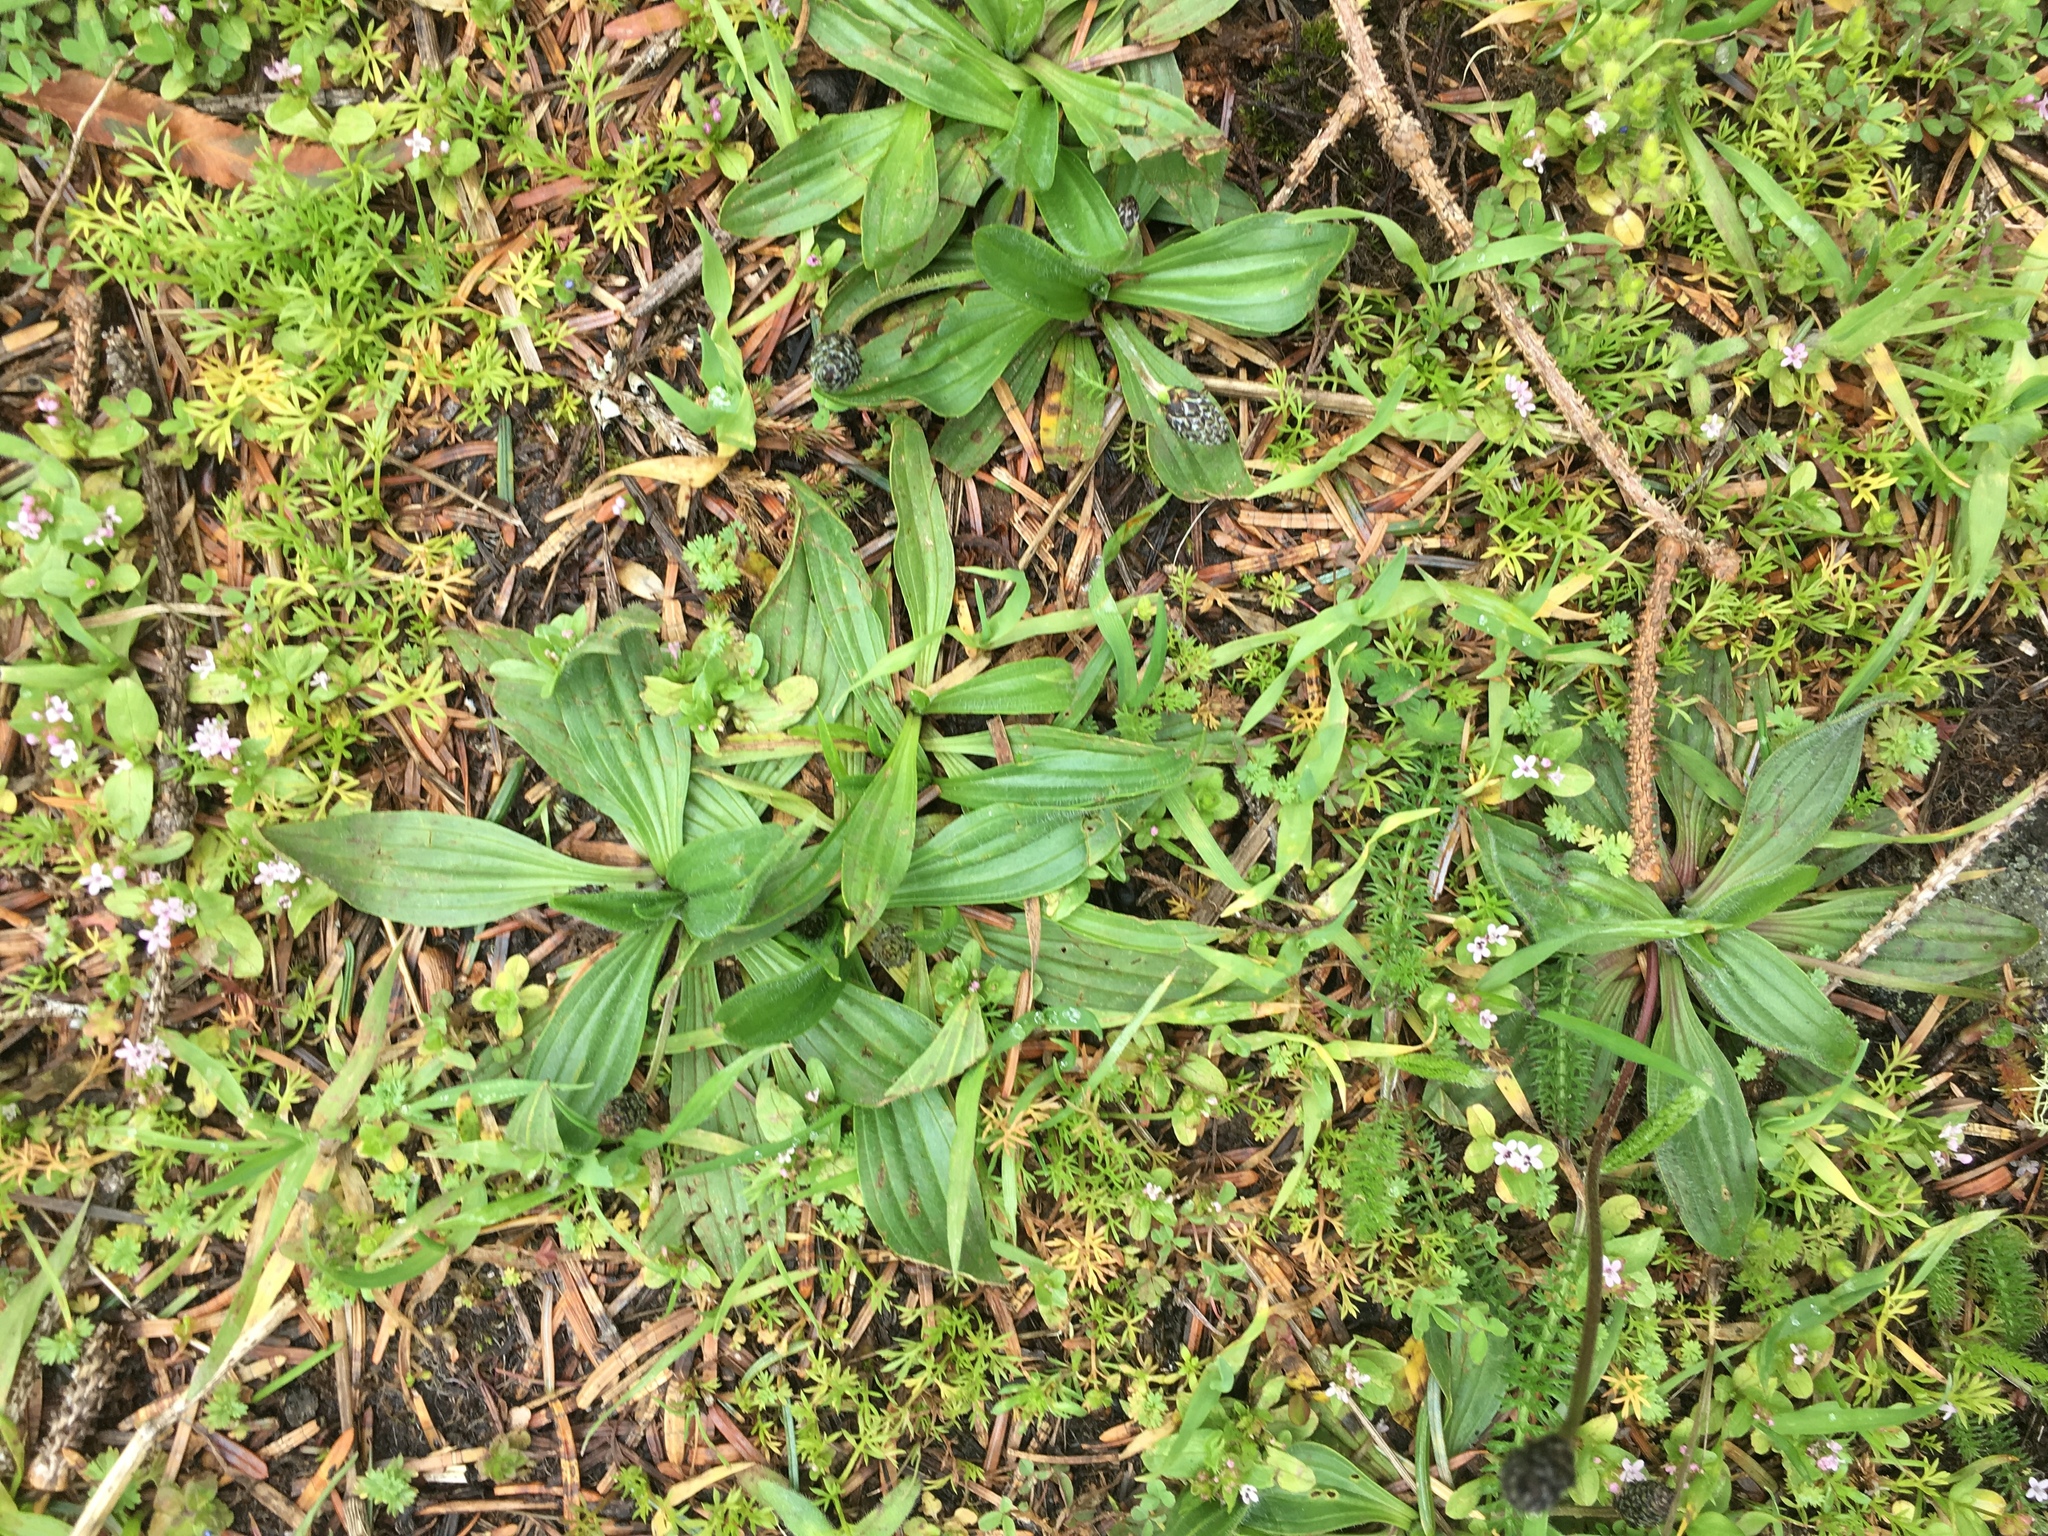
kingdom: Plantae
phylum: Tracheophyta
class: Magnoliopsida
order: Lamiales
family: Plantaginaceae
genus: Plantago
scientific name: Plantago lanceolata
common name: Ribwort plantain
